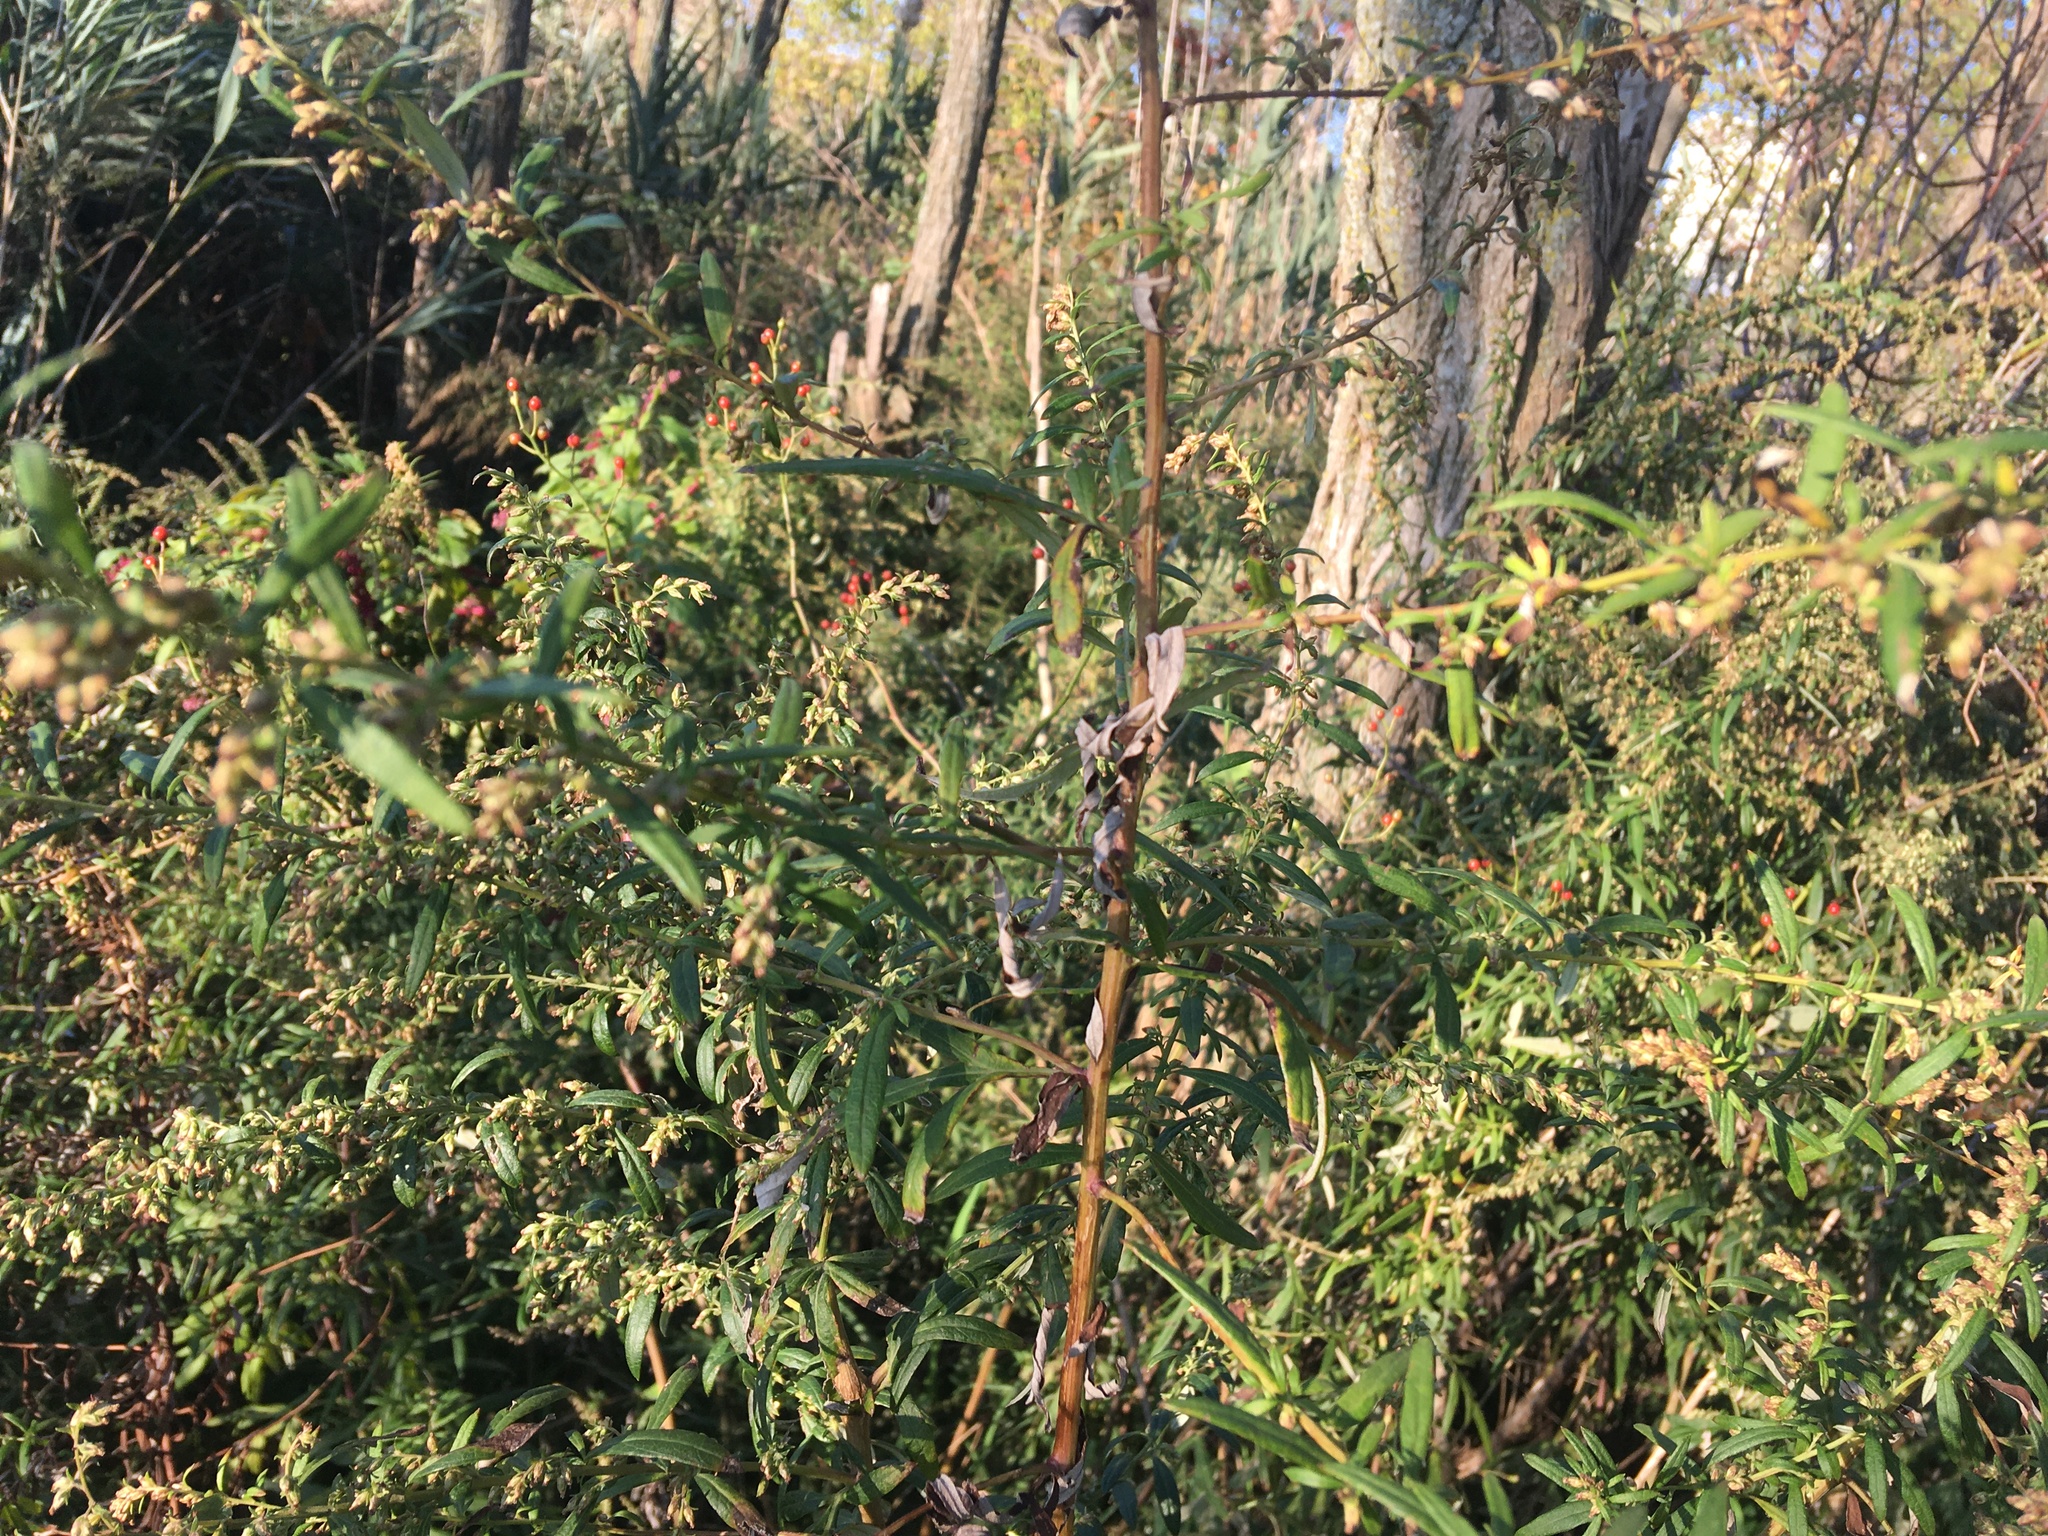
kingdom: Plantae
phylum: Tracheophyta
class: Magnoliopsida
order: Asterales
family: Asteraceae
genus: Artemisia
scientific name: Artemisia vulgaris
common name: Mugwort
